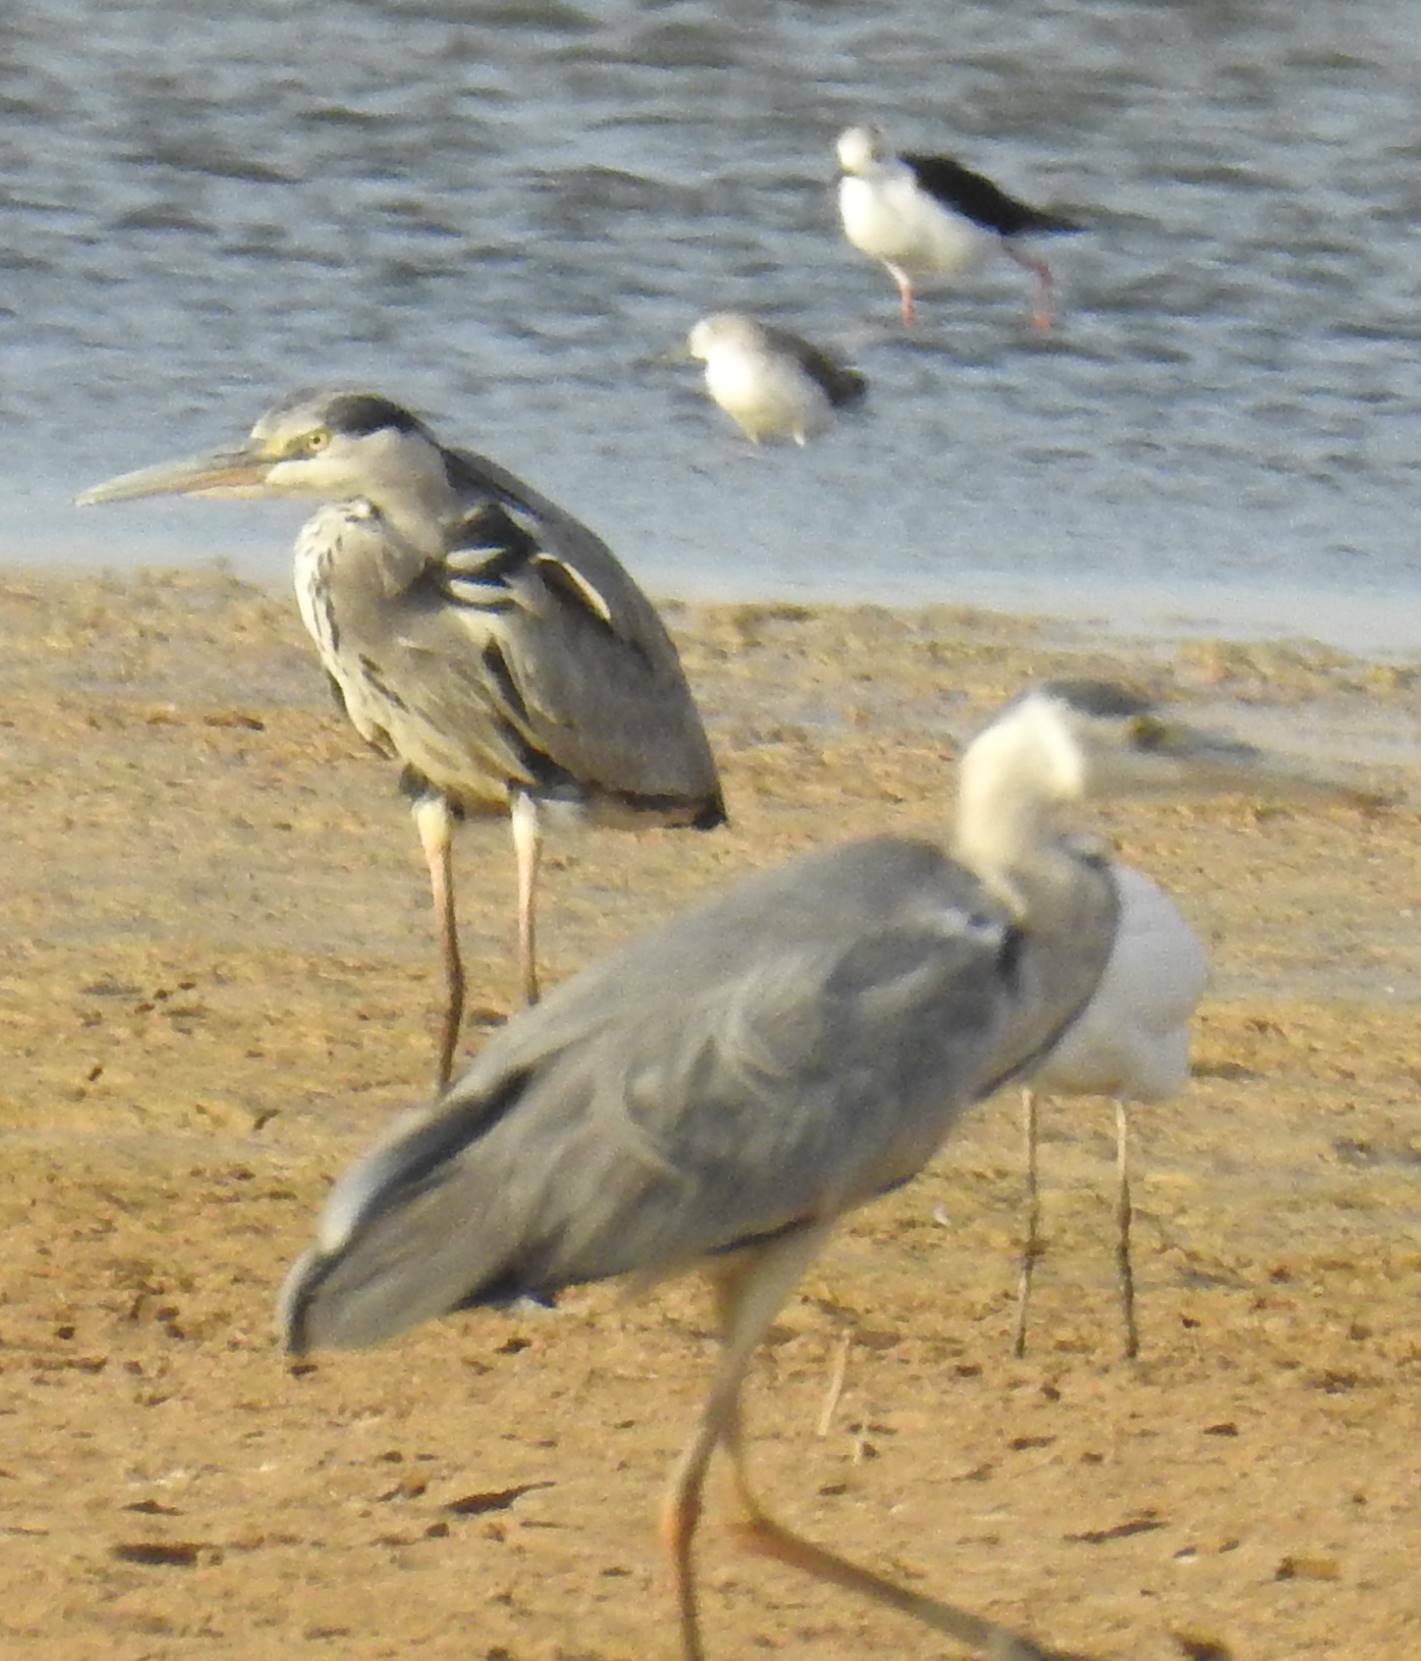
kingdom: Animalia
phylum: Chordata
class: Aves
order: Pelecaniformes
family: Ardeidae
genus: Ardea
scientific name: Ardea cinerea
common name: Grey heron
